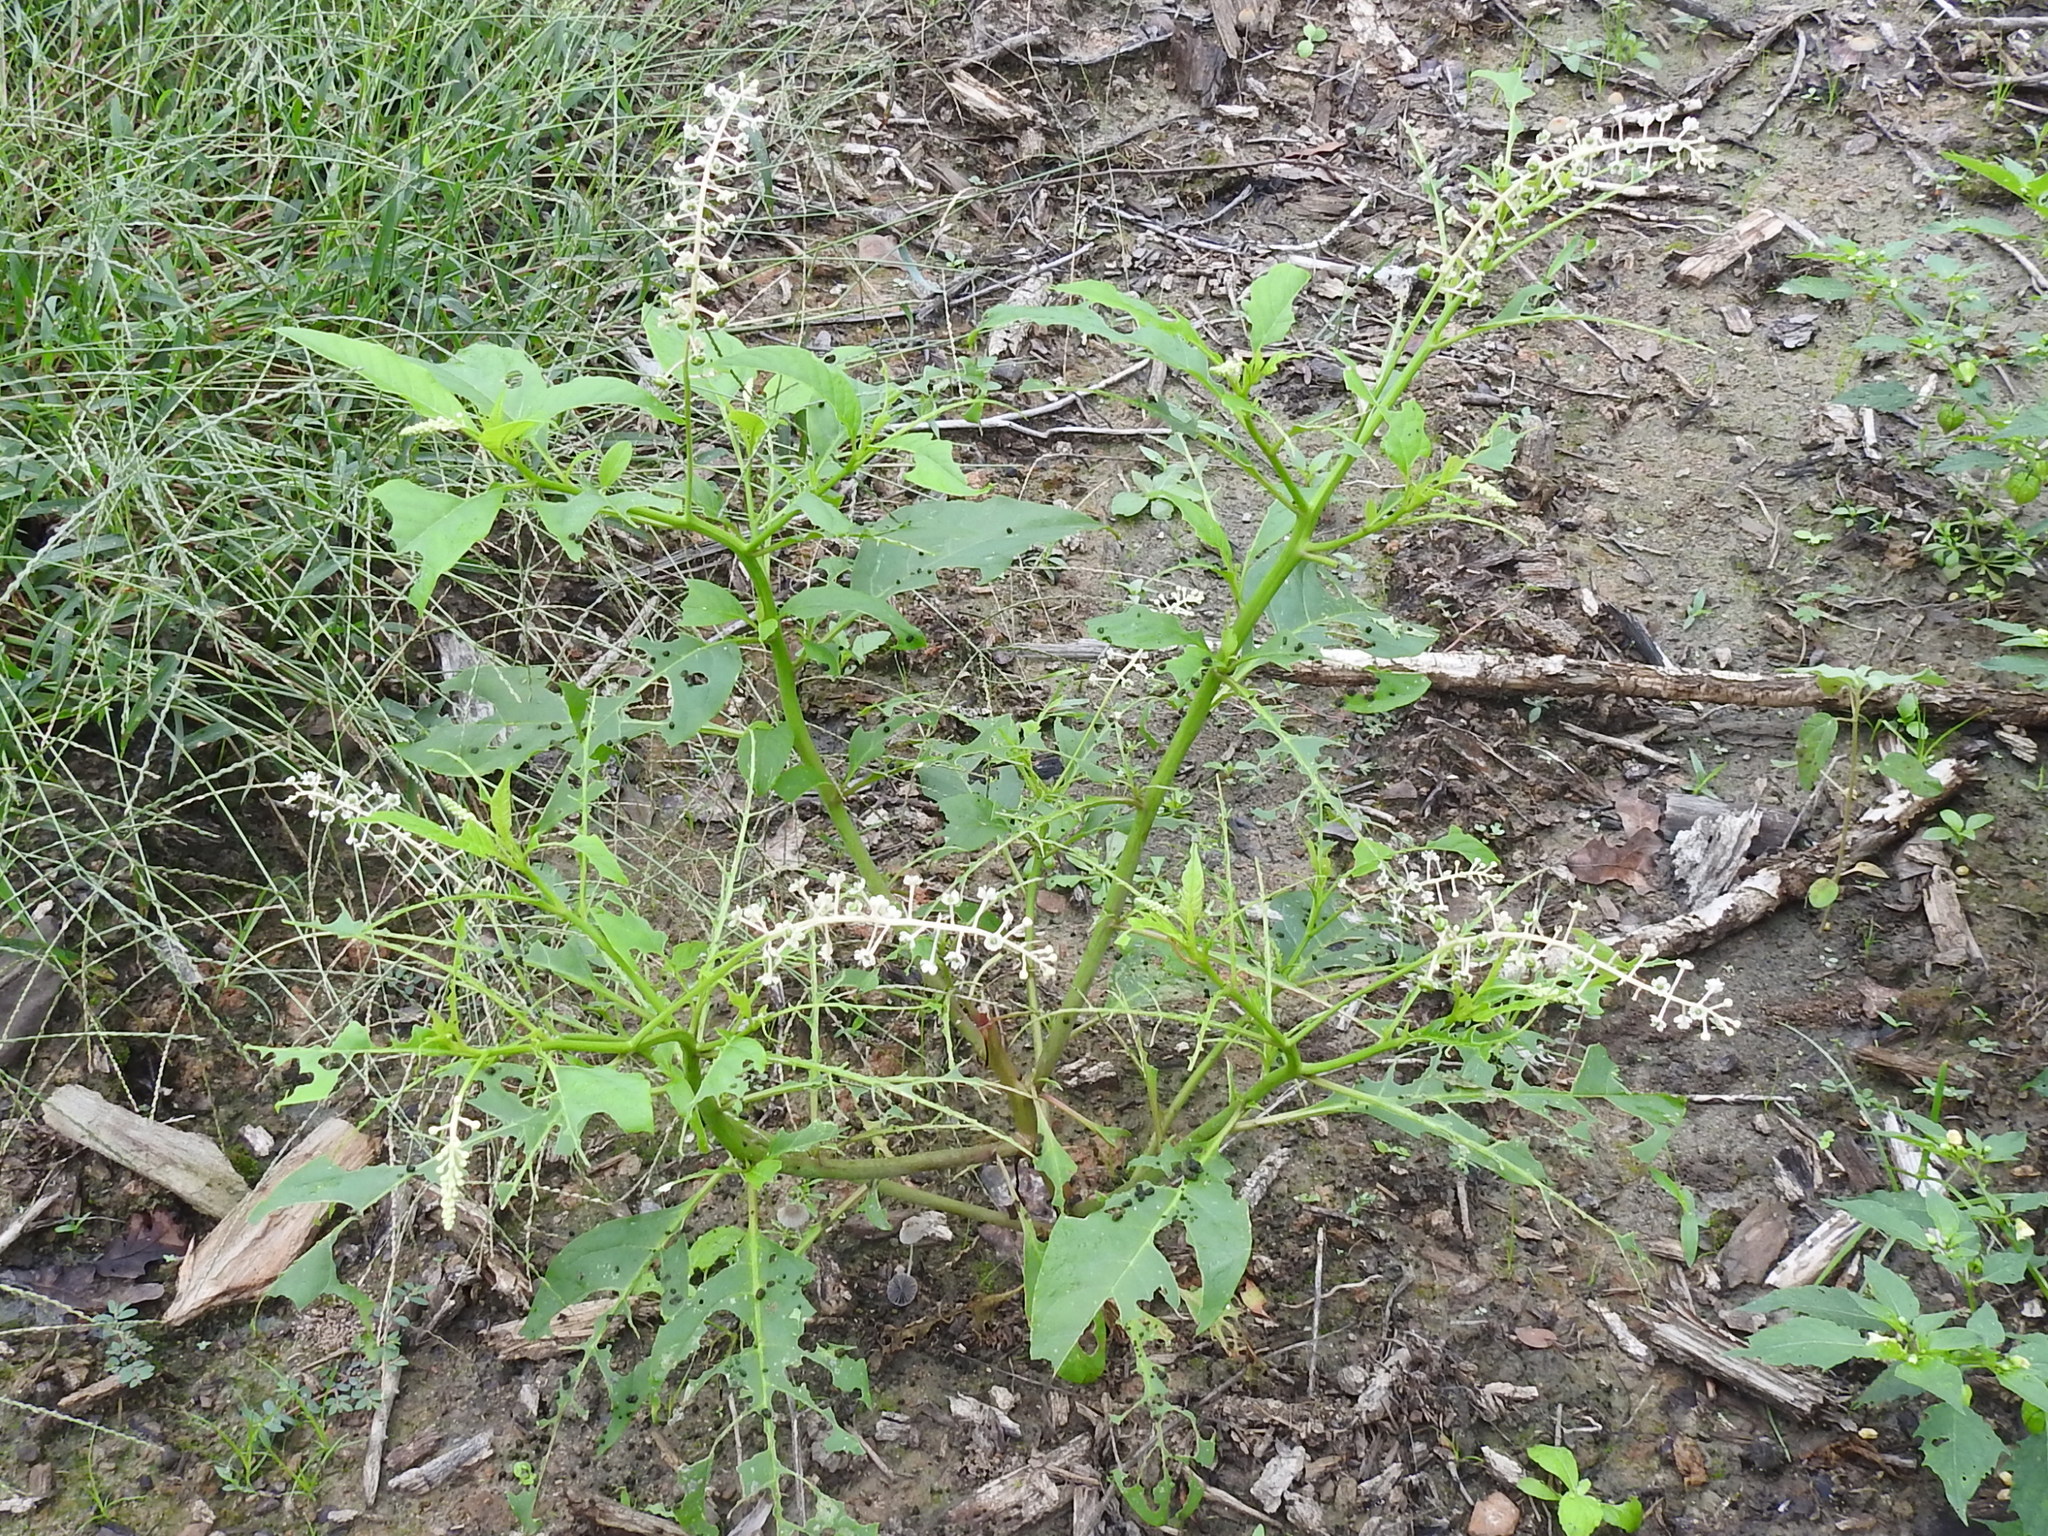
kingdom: Plantae
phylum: Tracheophyta
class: Magnoliopsida
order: Caryophyllales
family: Phytolaccaceae
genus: Phytolacca
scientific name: Phytolacca americana
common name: American pokeweed
